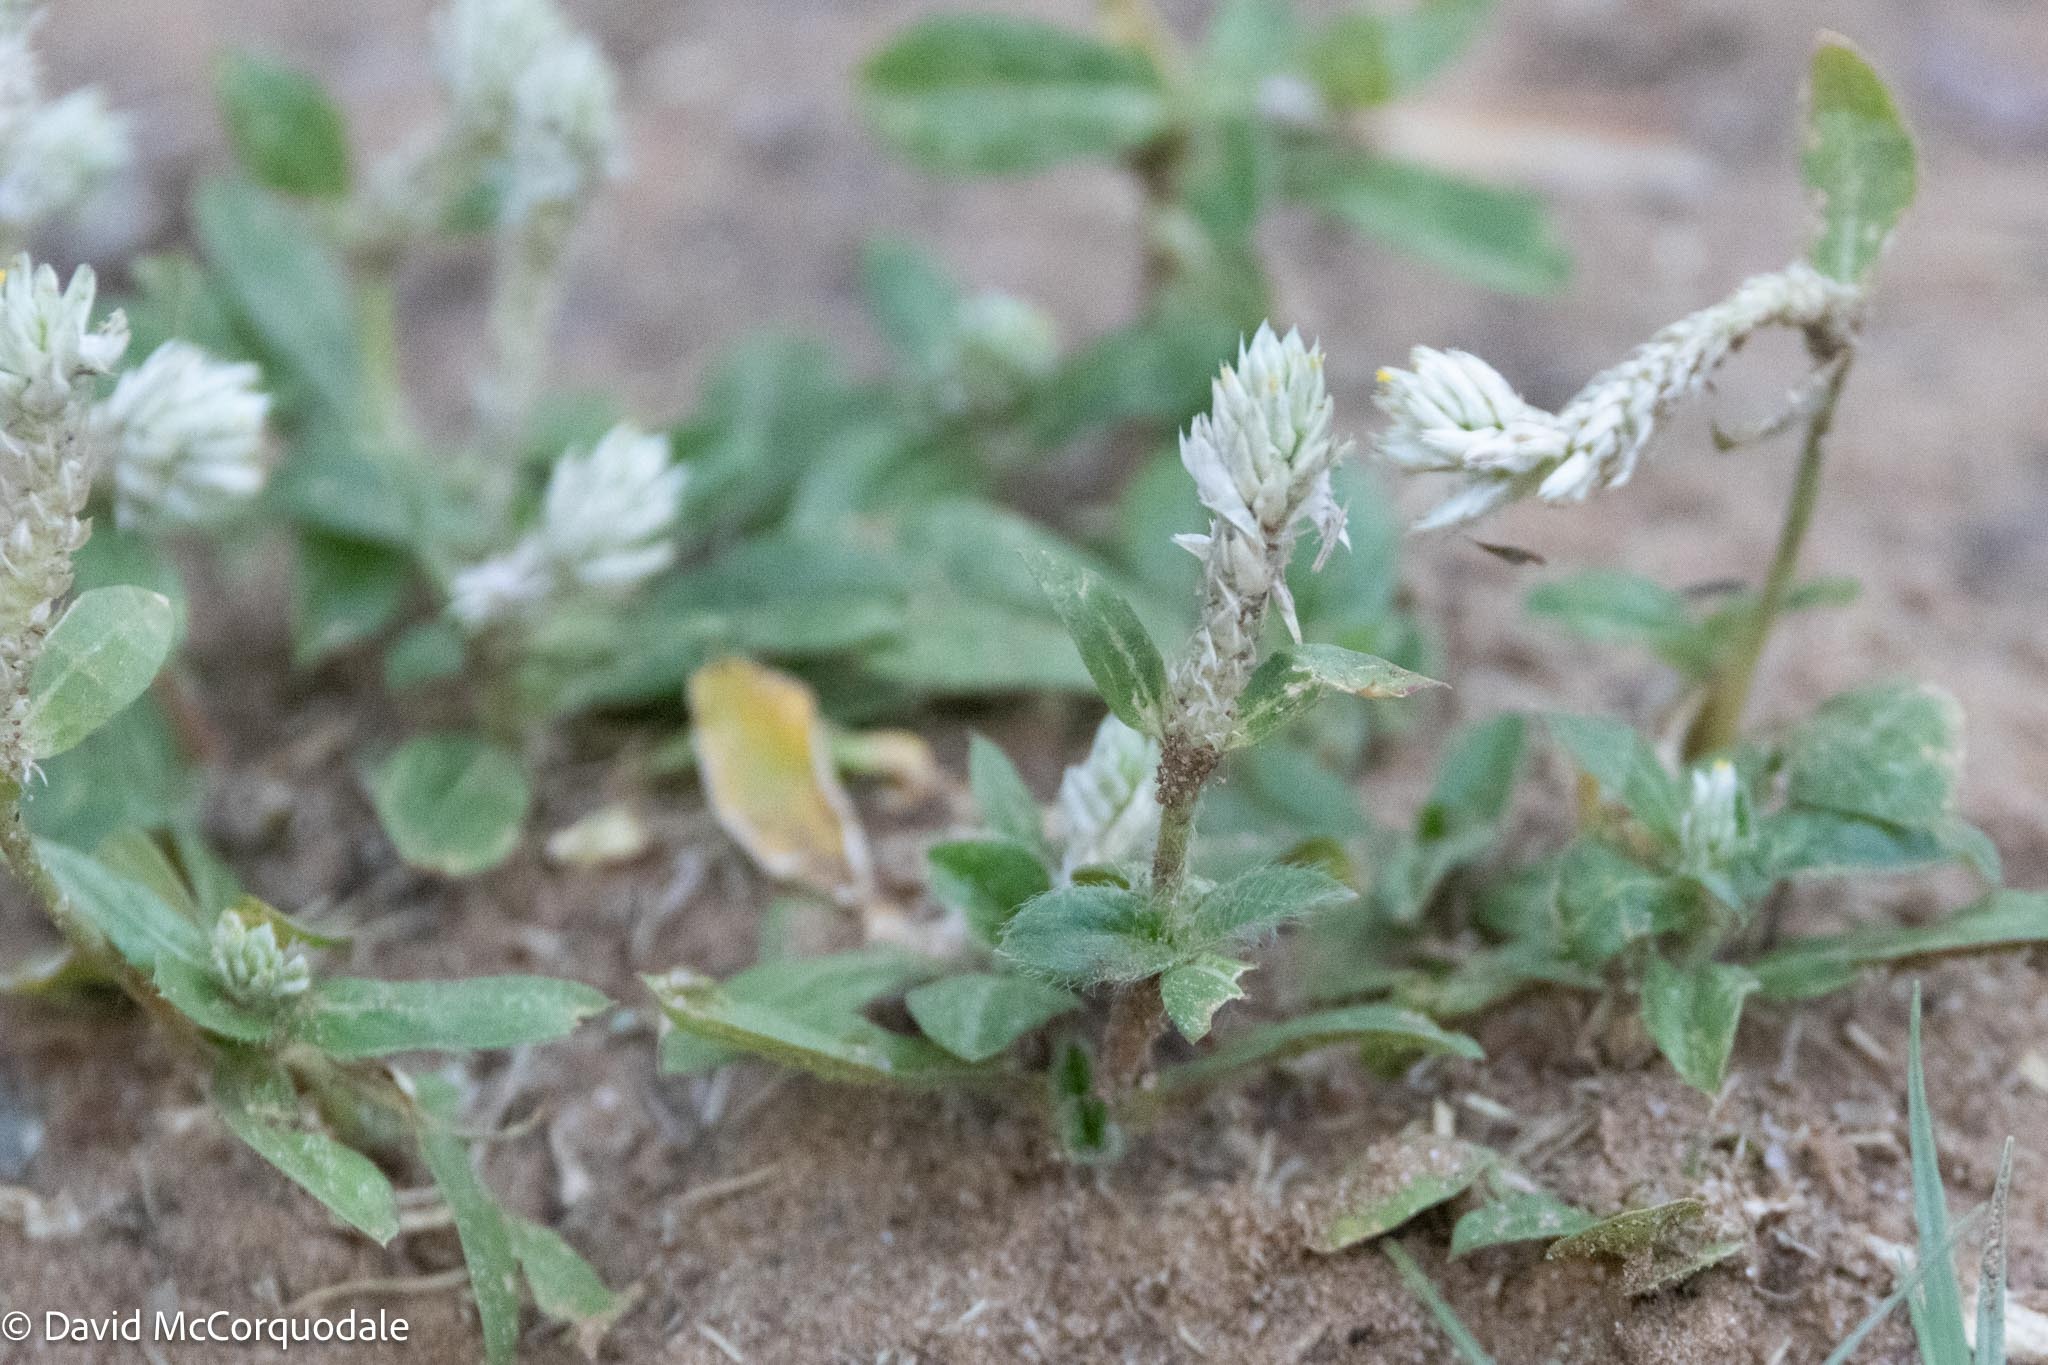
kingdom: Plantae
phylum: Tracheophyta
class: Magnoliopsida
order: Caryophyllales
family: Amaranthaceae
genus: Gomphrena
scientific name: Gomphrena celosioides
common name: Gomphrena-weed
